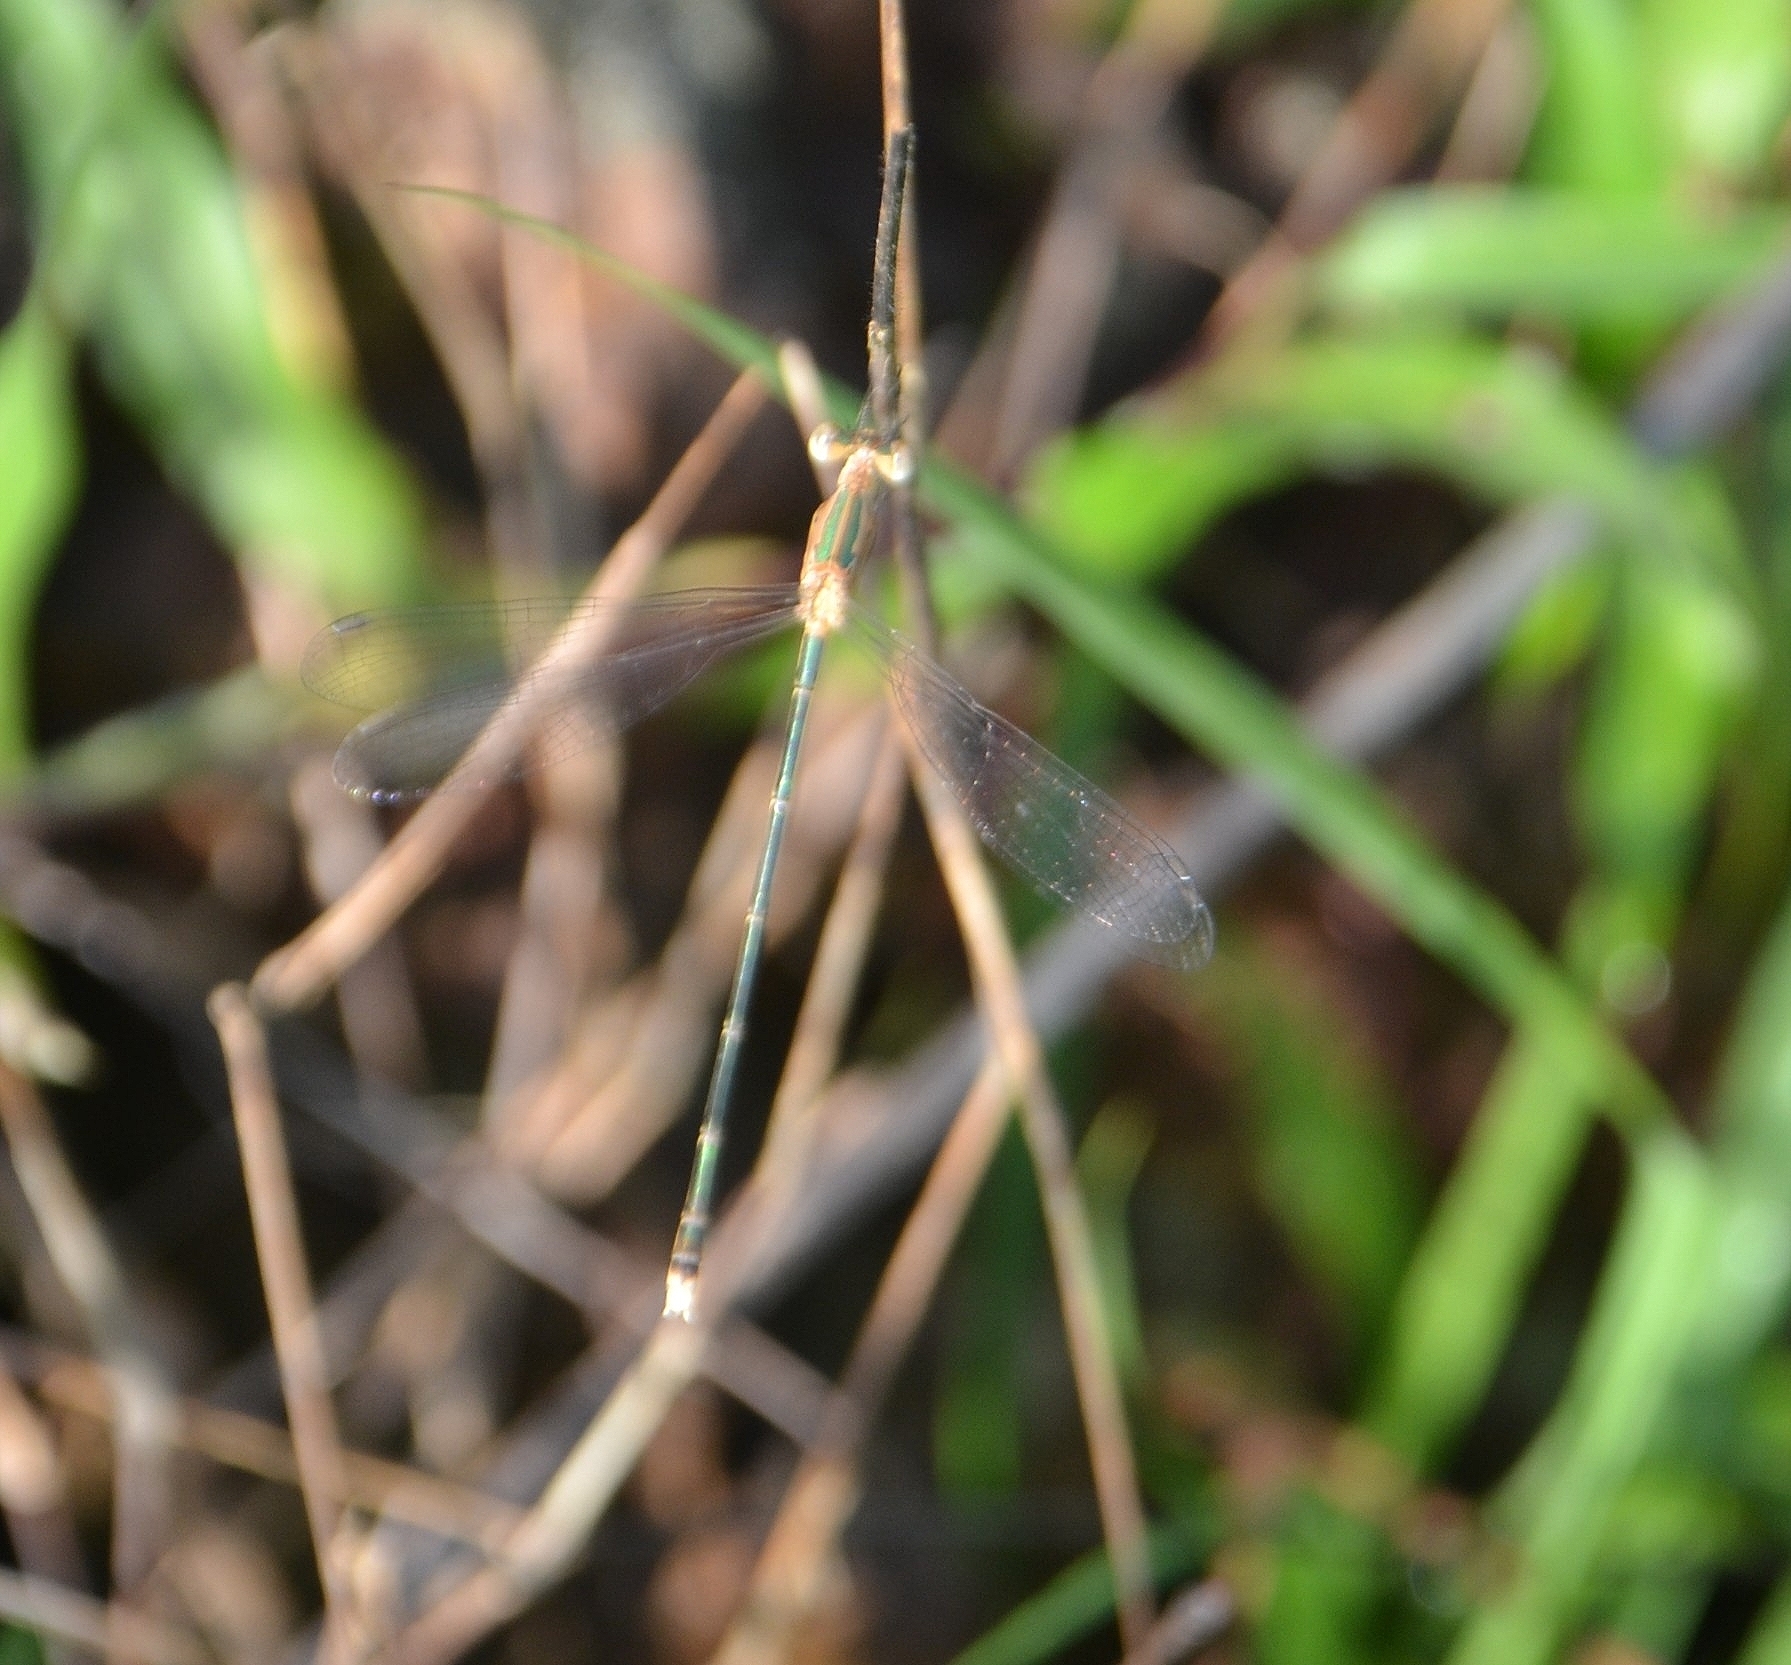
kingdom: Animalia
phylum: Arthropoda
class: Insecta
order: Odonata
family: Lestidae
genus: Lestes
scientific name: Lestes elatus
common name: Emerald spreadwing
